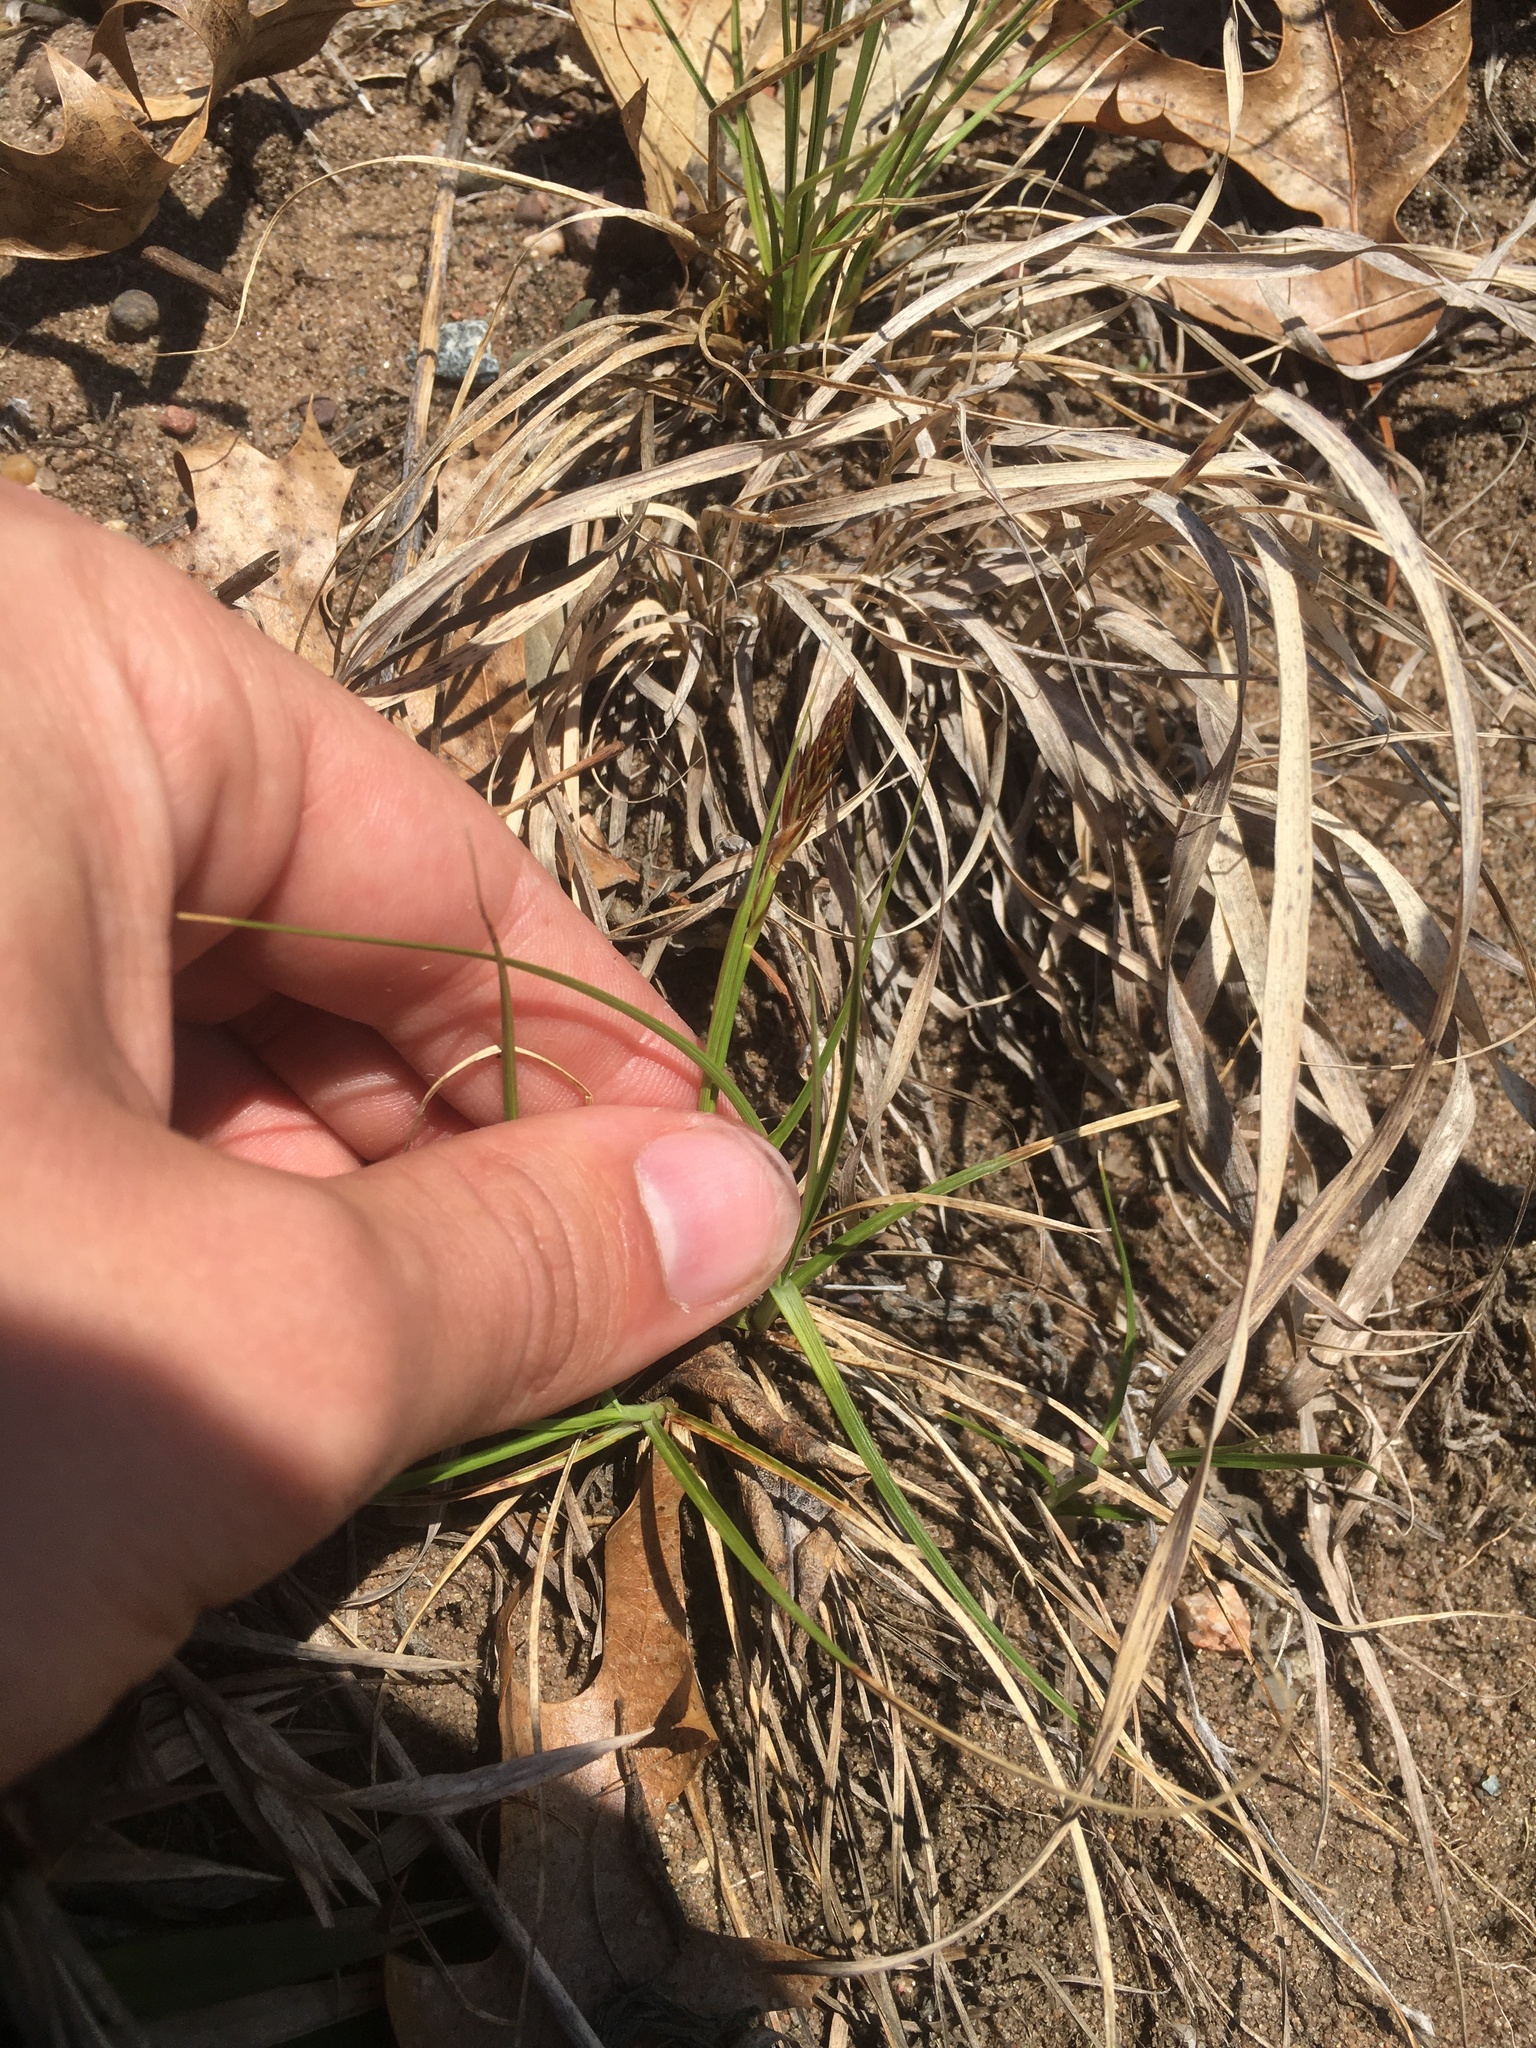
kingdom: Plantae
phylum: Tracheophyta
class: Liliopsida
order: Poales
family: Cyperaceae
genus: Carex
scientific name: Carex inops
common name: Long-stolon sedge
